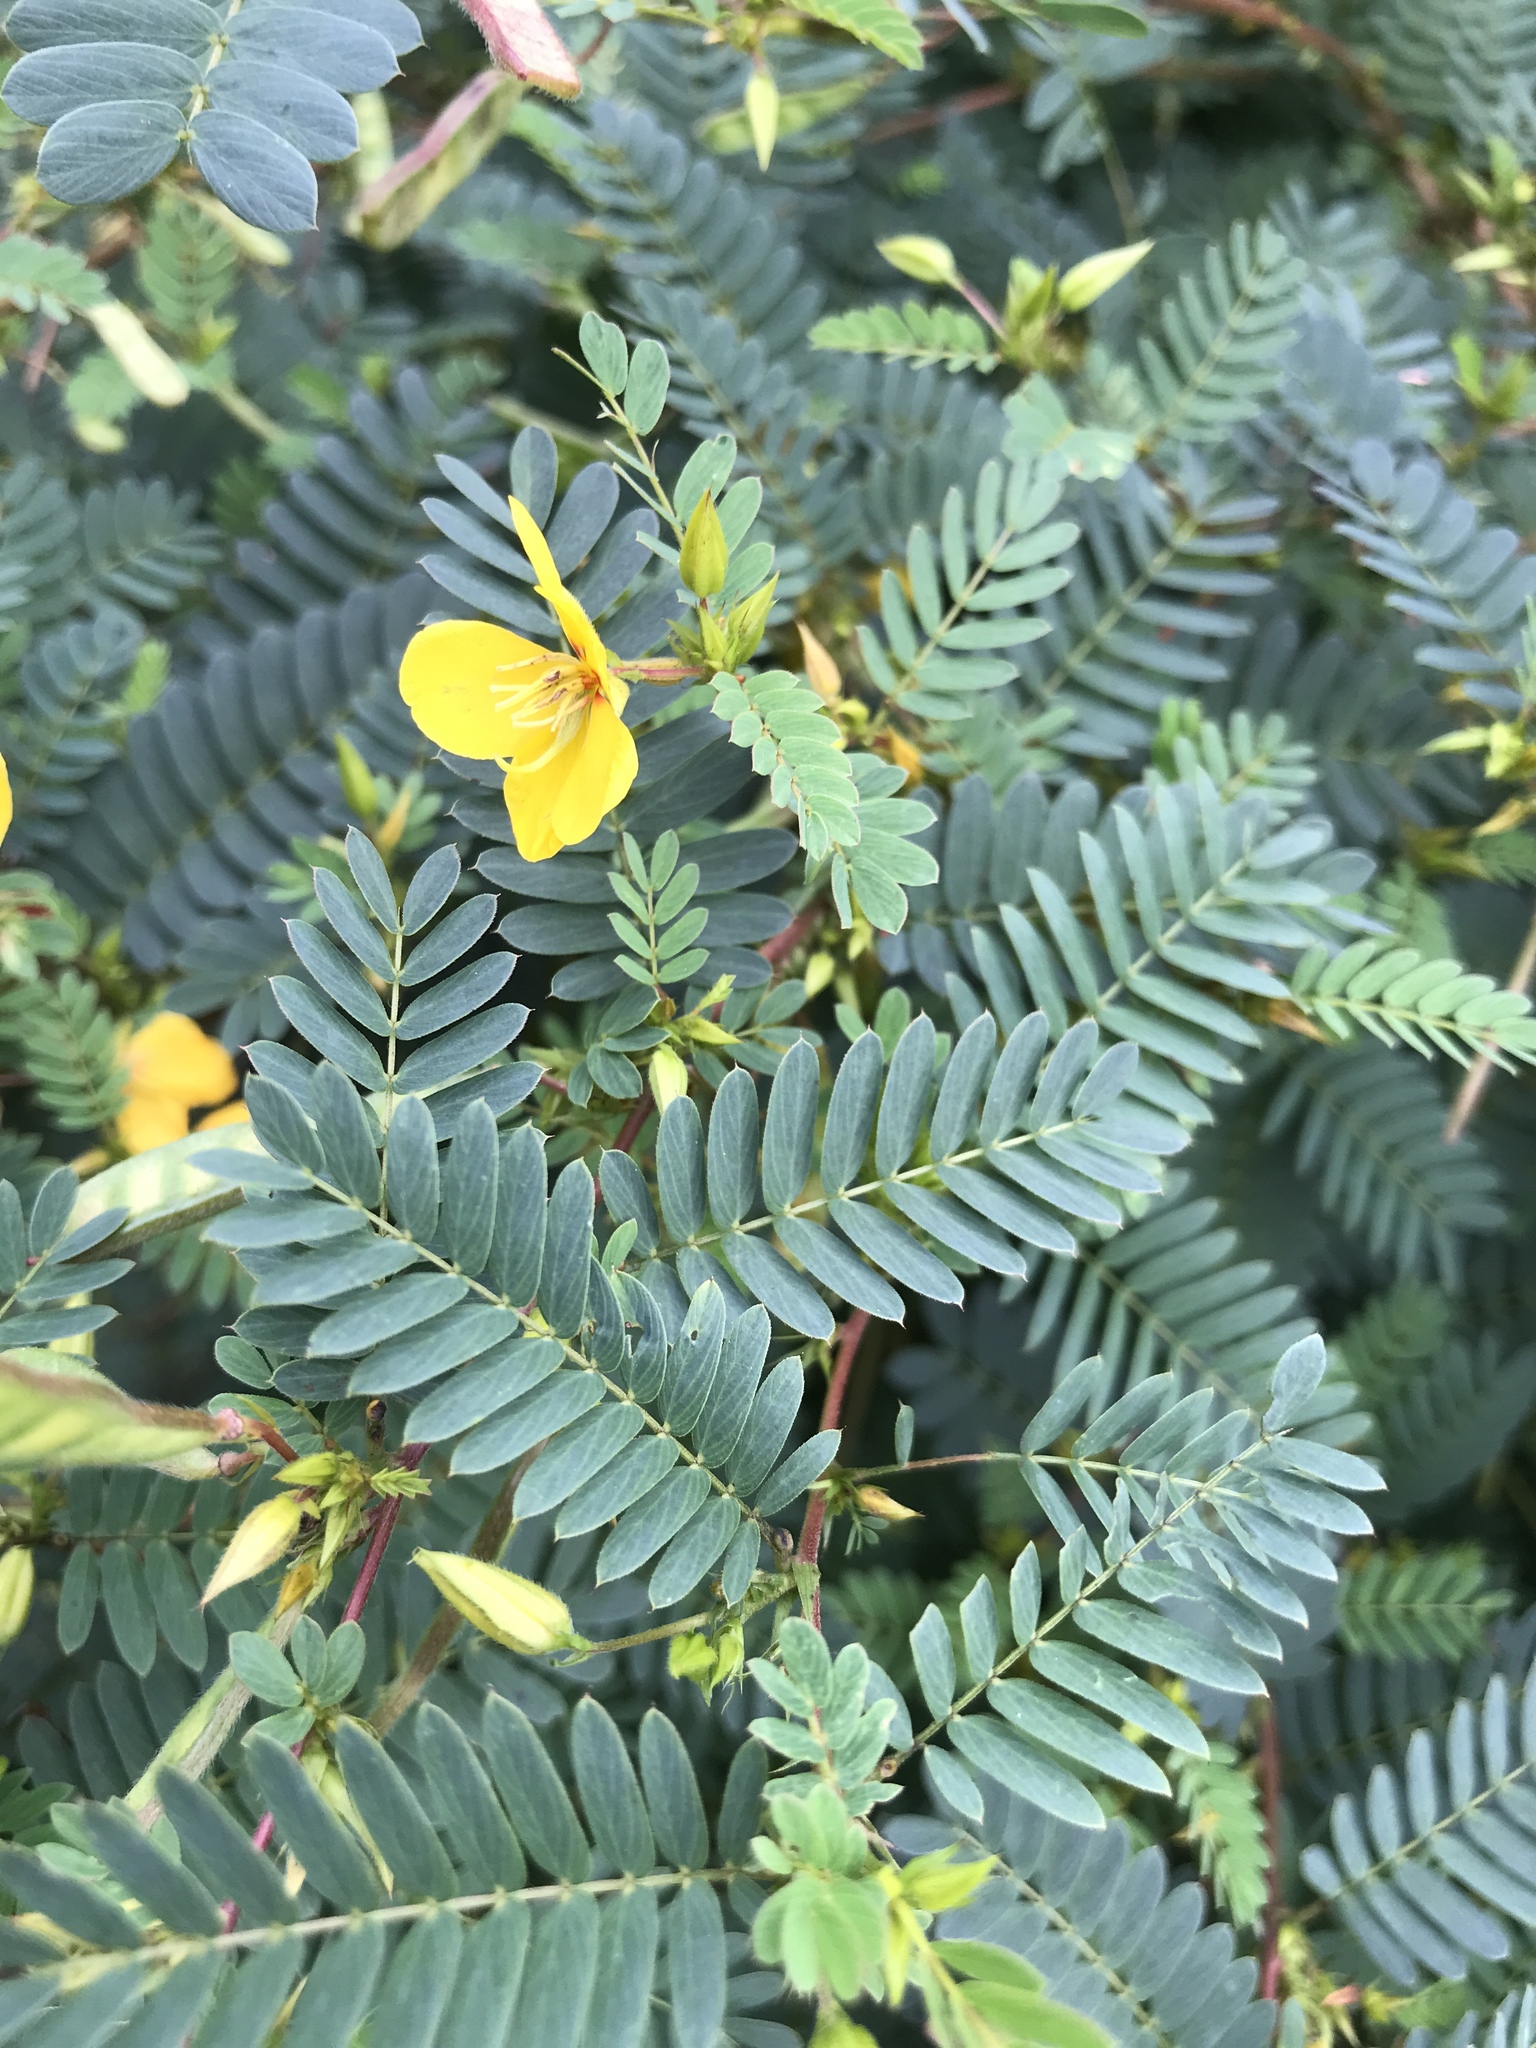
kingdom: Plantae
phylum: Tracheophyta
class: Magnoliopsida
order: Fabales
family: Fabaceae
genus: Chamaecrista
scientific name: Chamaecrista fasciculata
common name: Golden cassia
